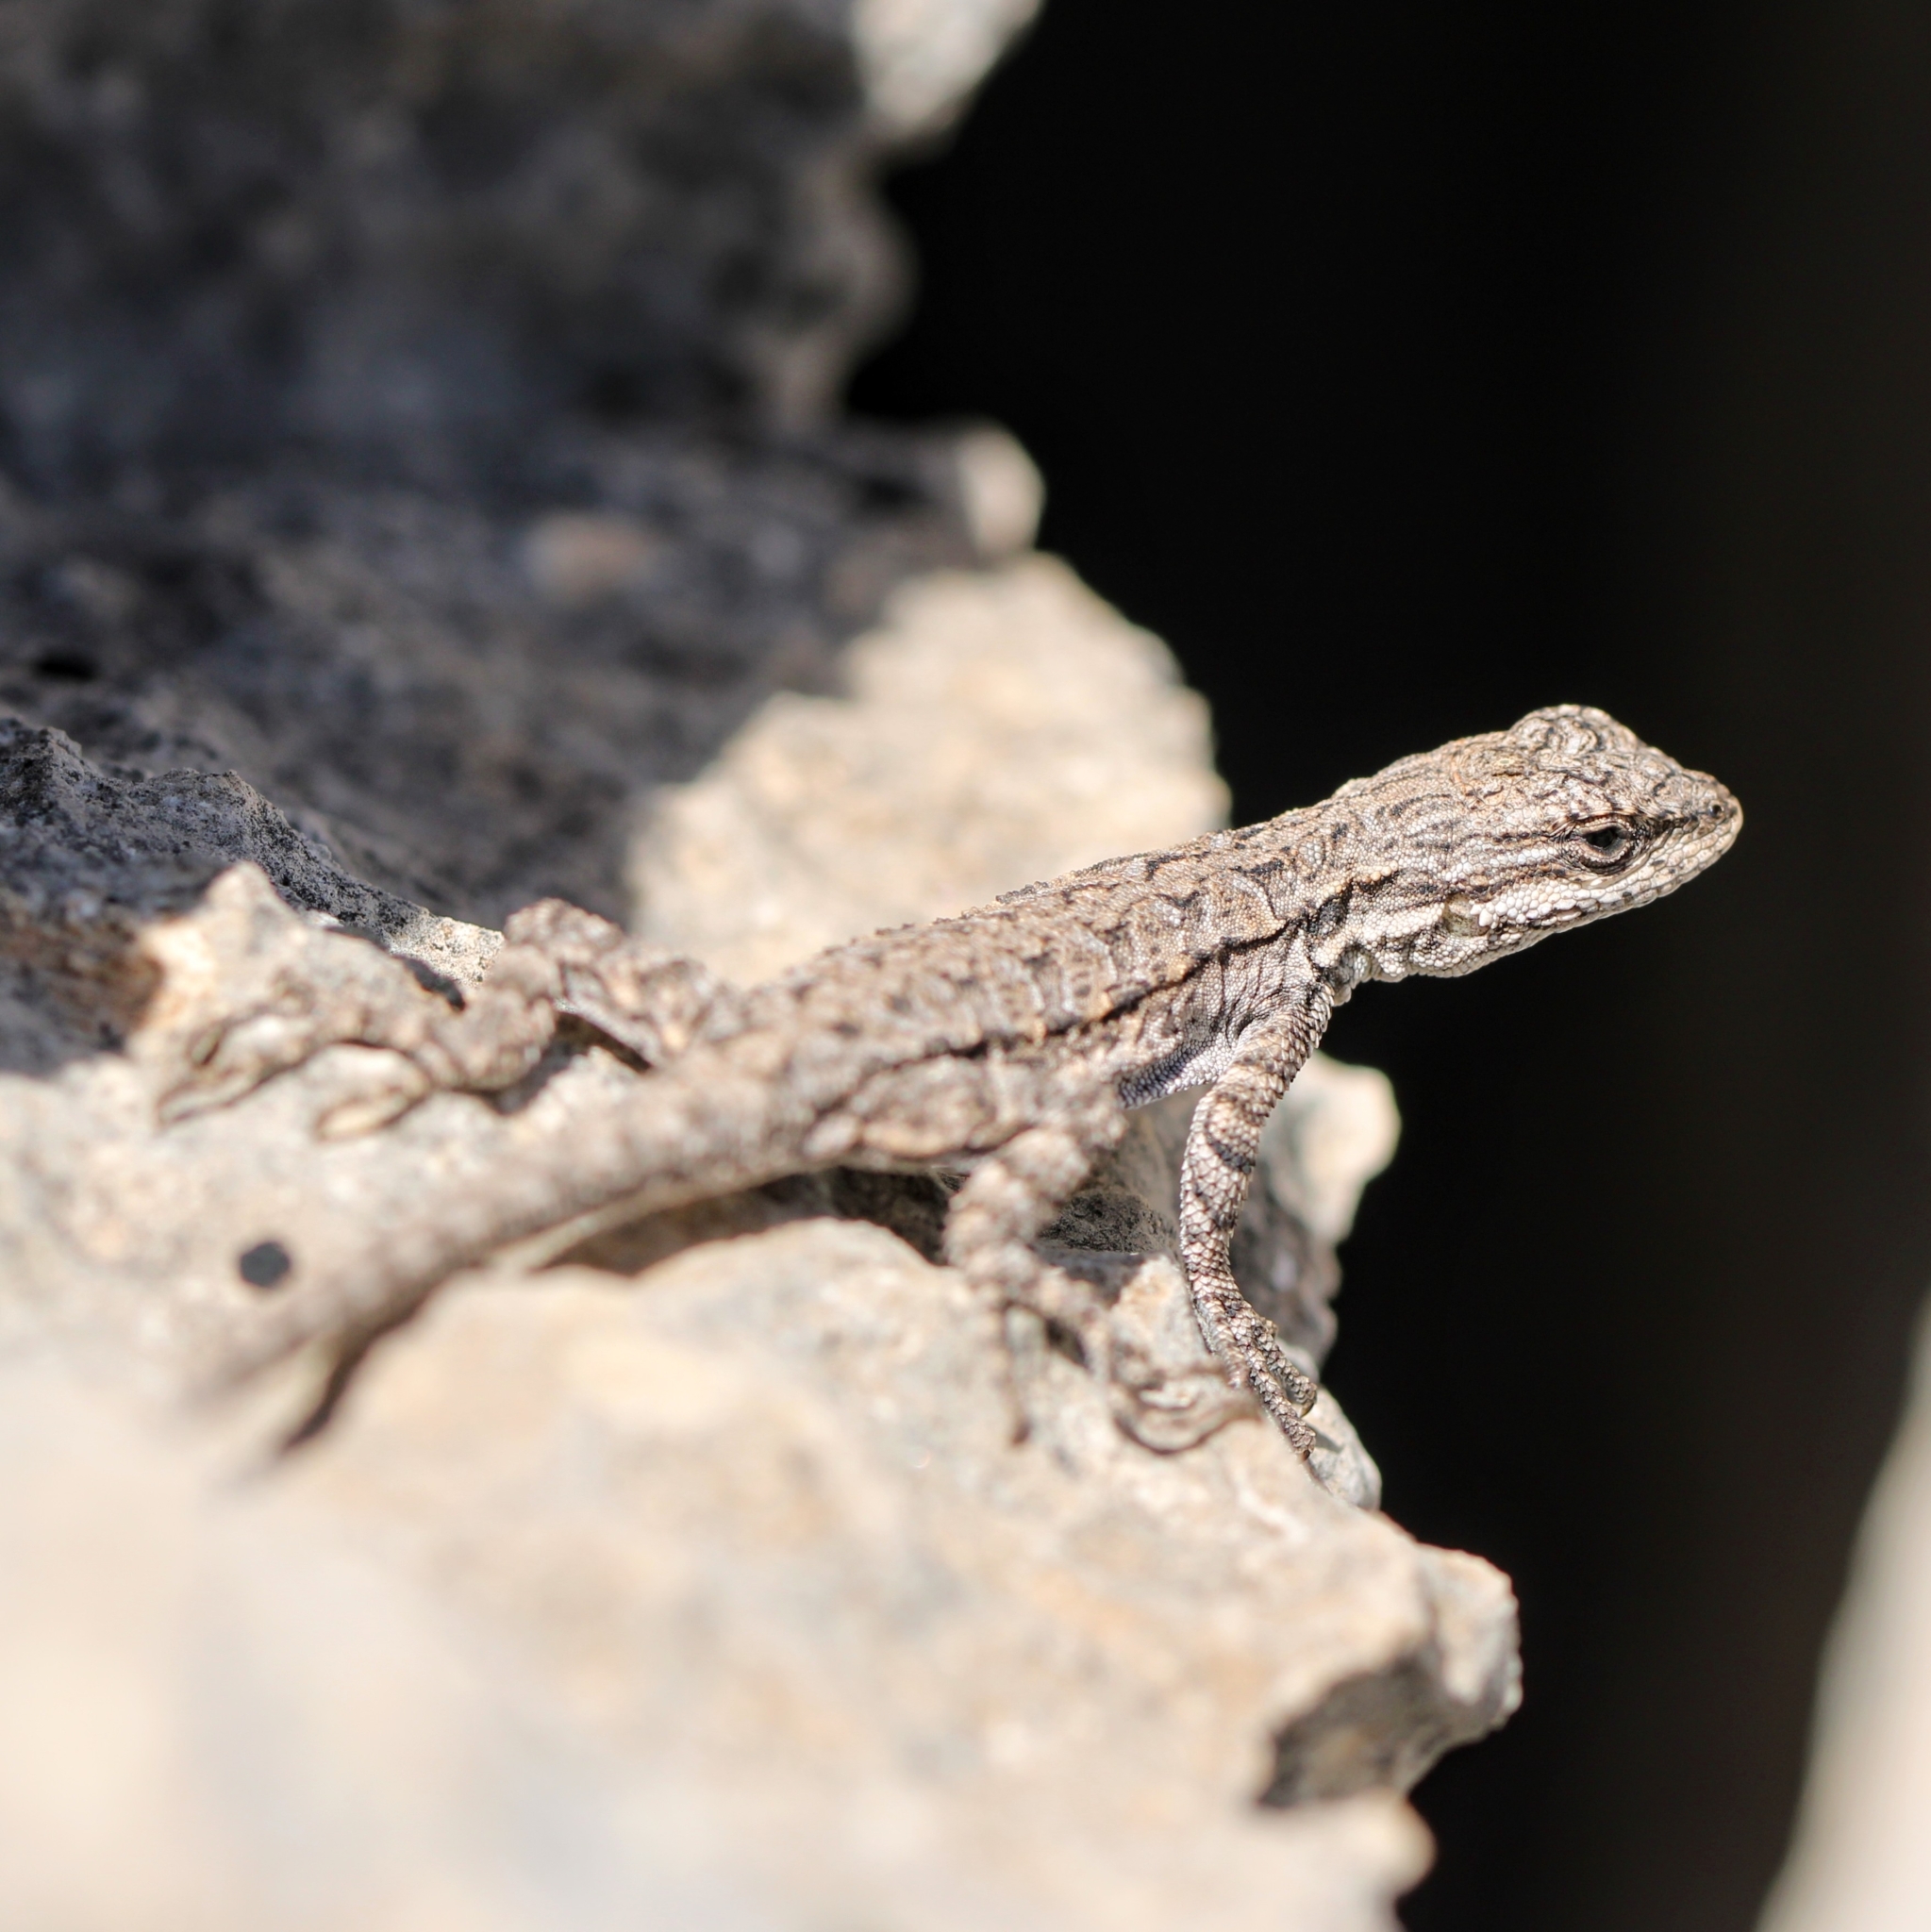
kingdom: Animalia
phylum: Chordata
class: Squamata
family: Phrynosomatidae
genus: Urosaurus
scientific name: Urosaurus ornatus
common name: Ornate tree lizard
